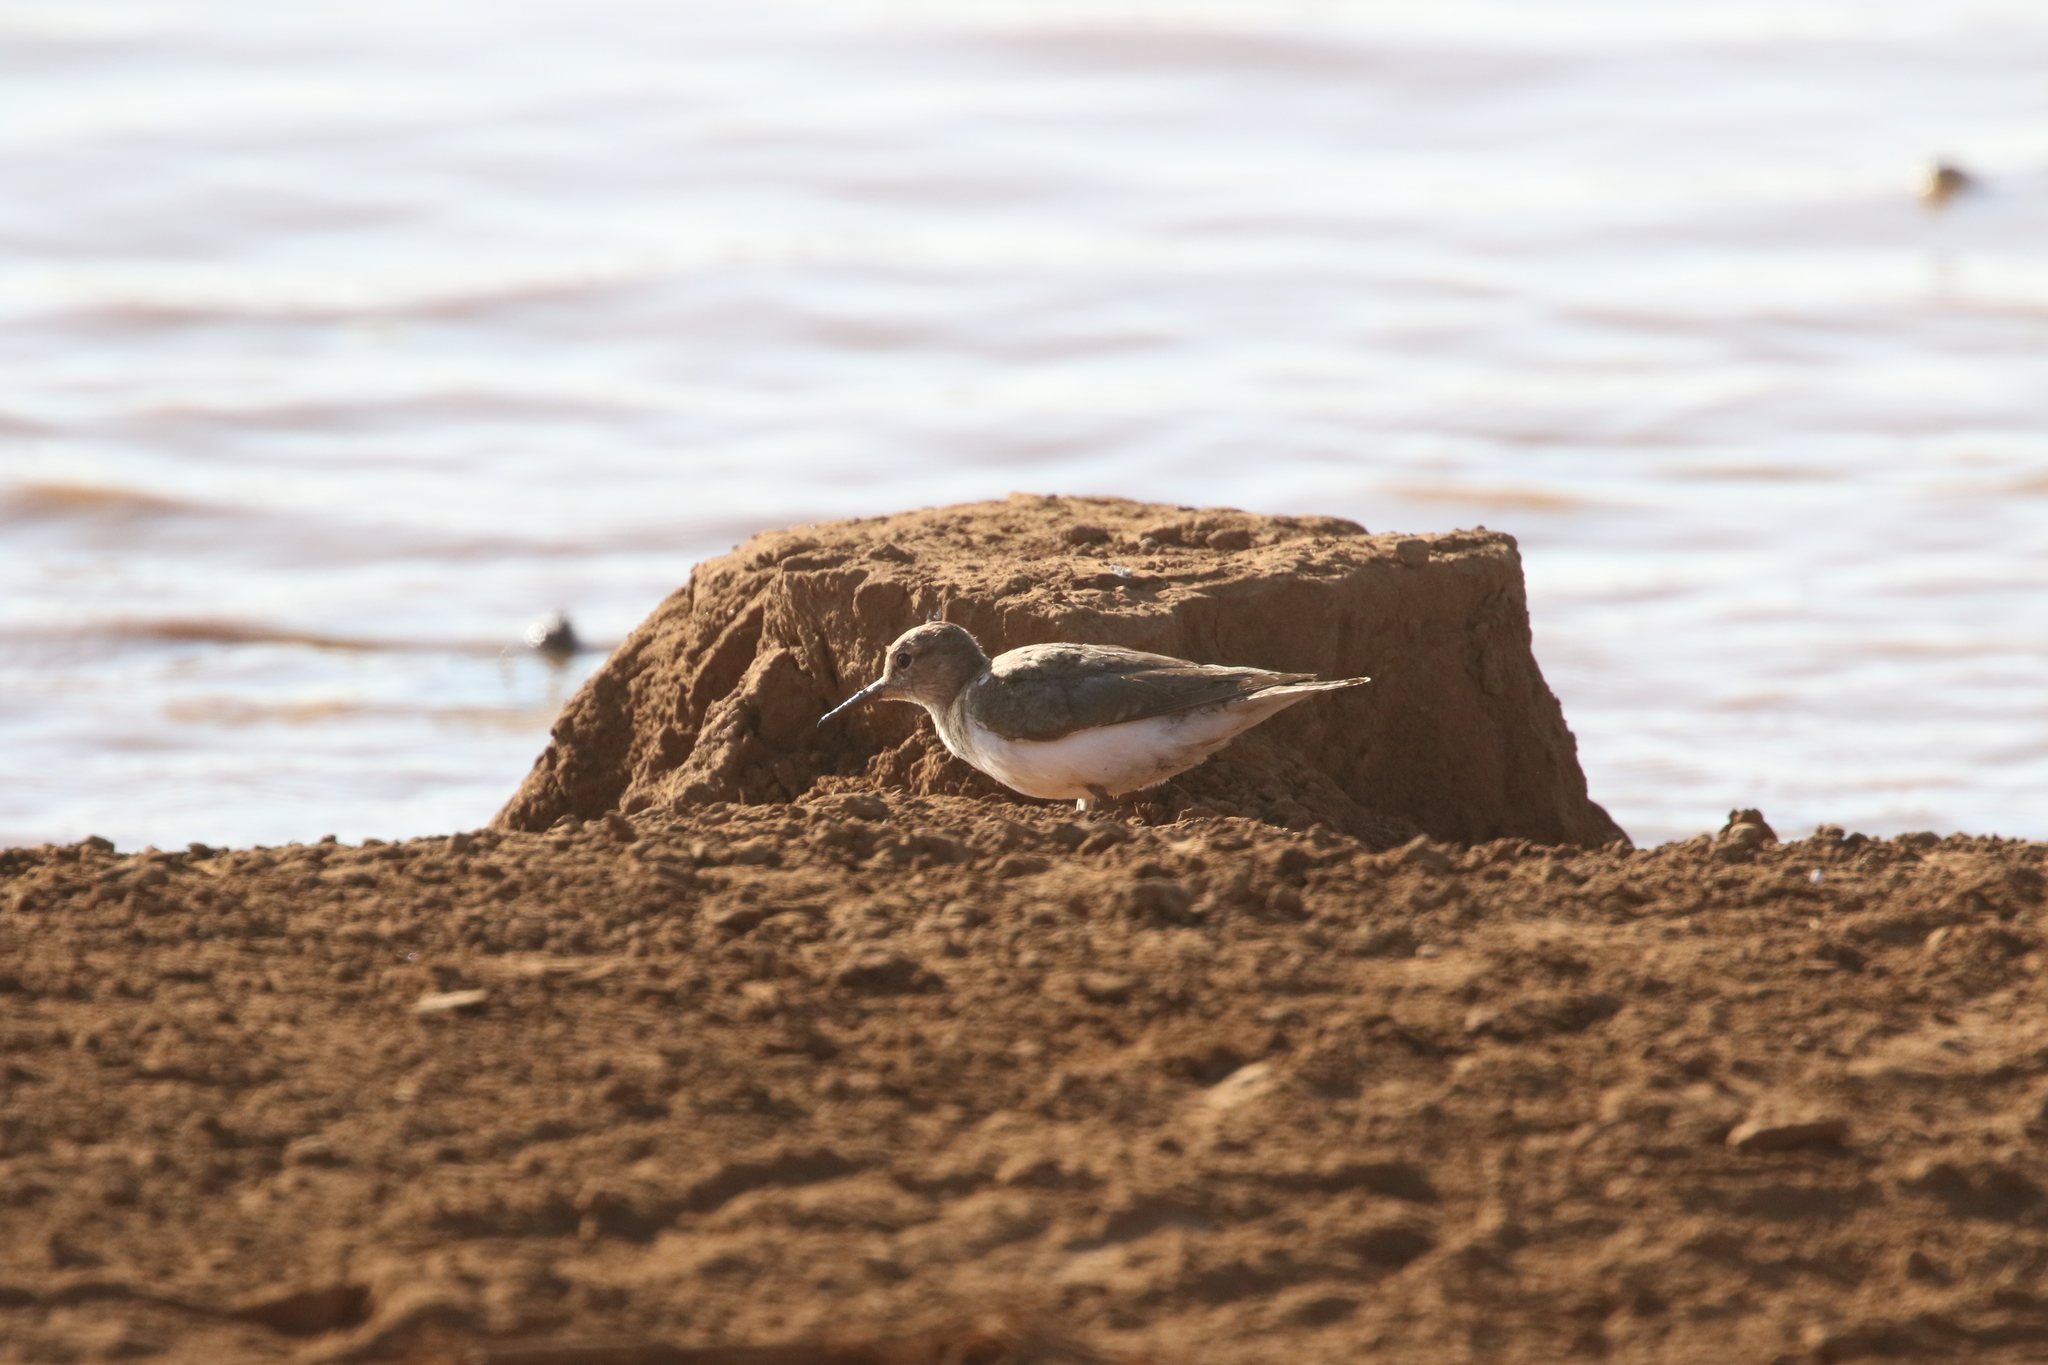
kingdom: Animalia
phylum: Chordata
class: Aves
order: Charadriiformes
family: Scolopacidae
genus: Actitis
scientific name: Actitis hypoleucos
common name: Common sandpiper
